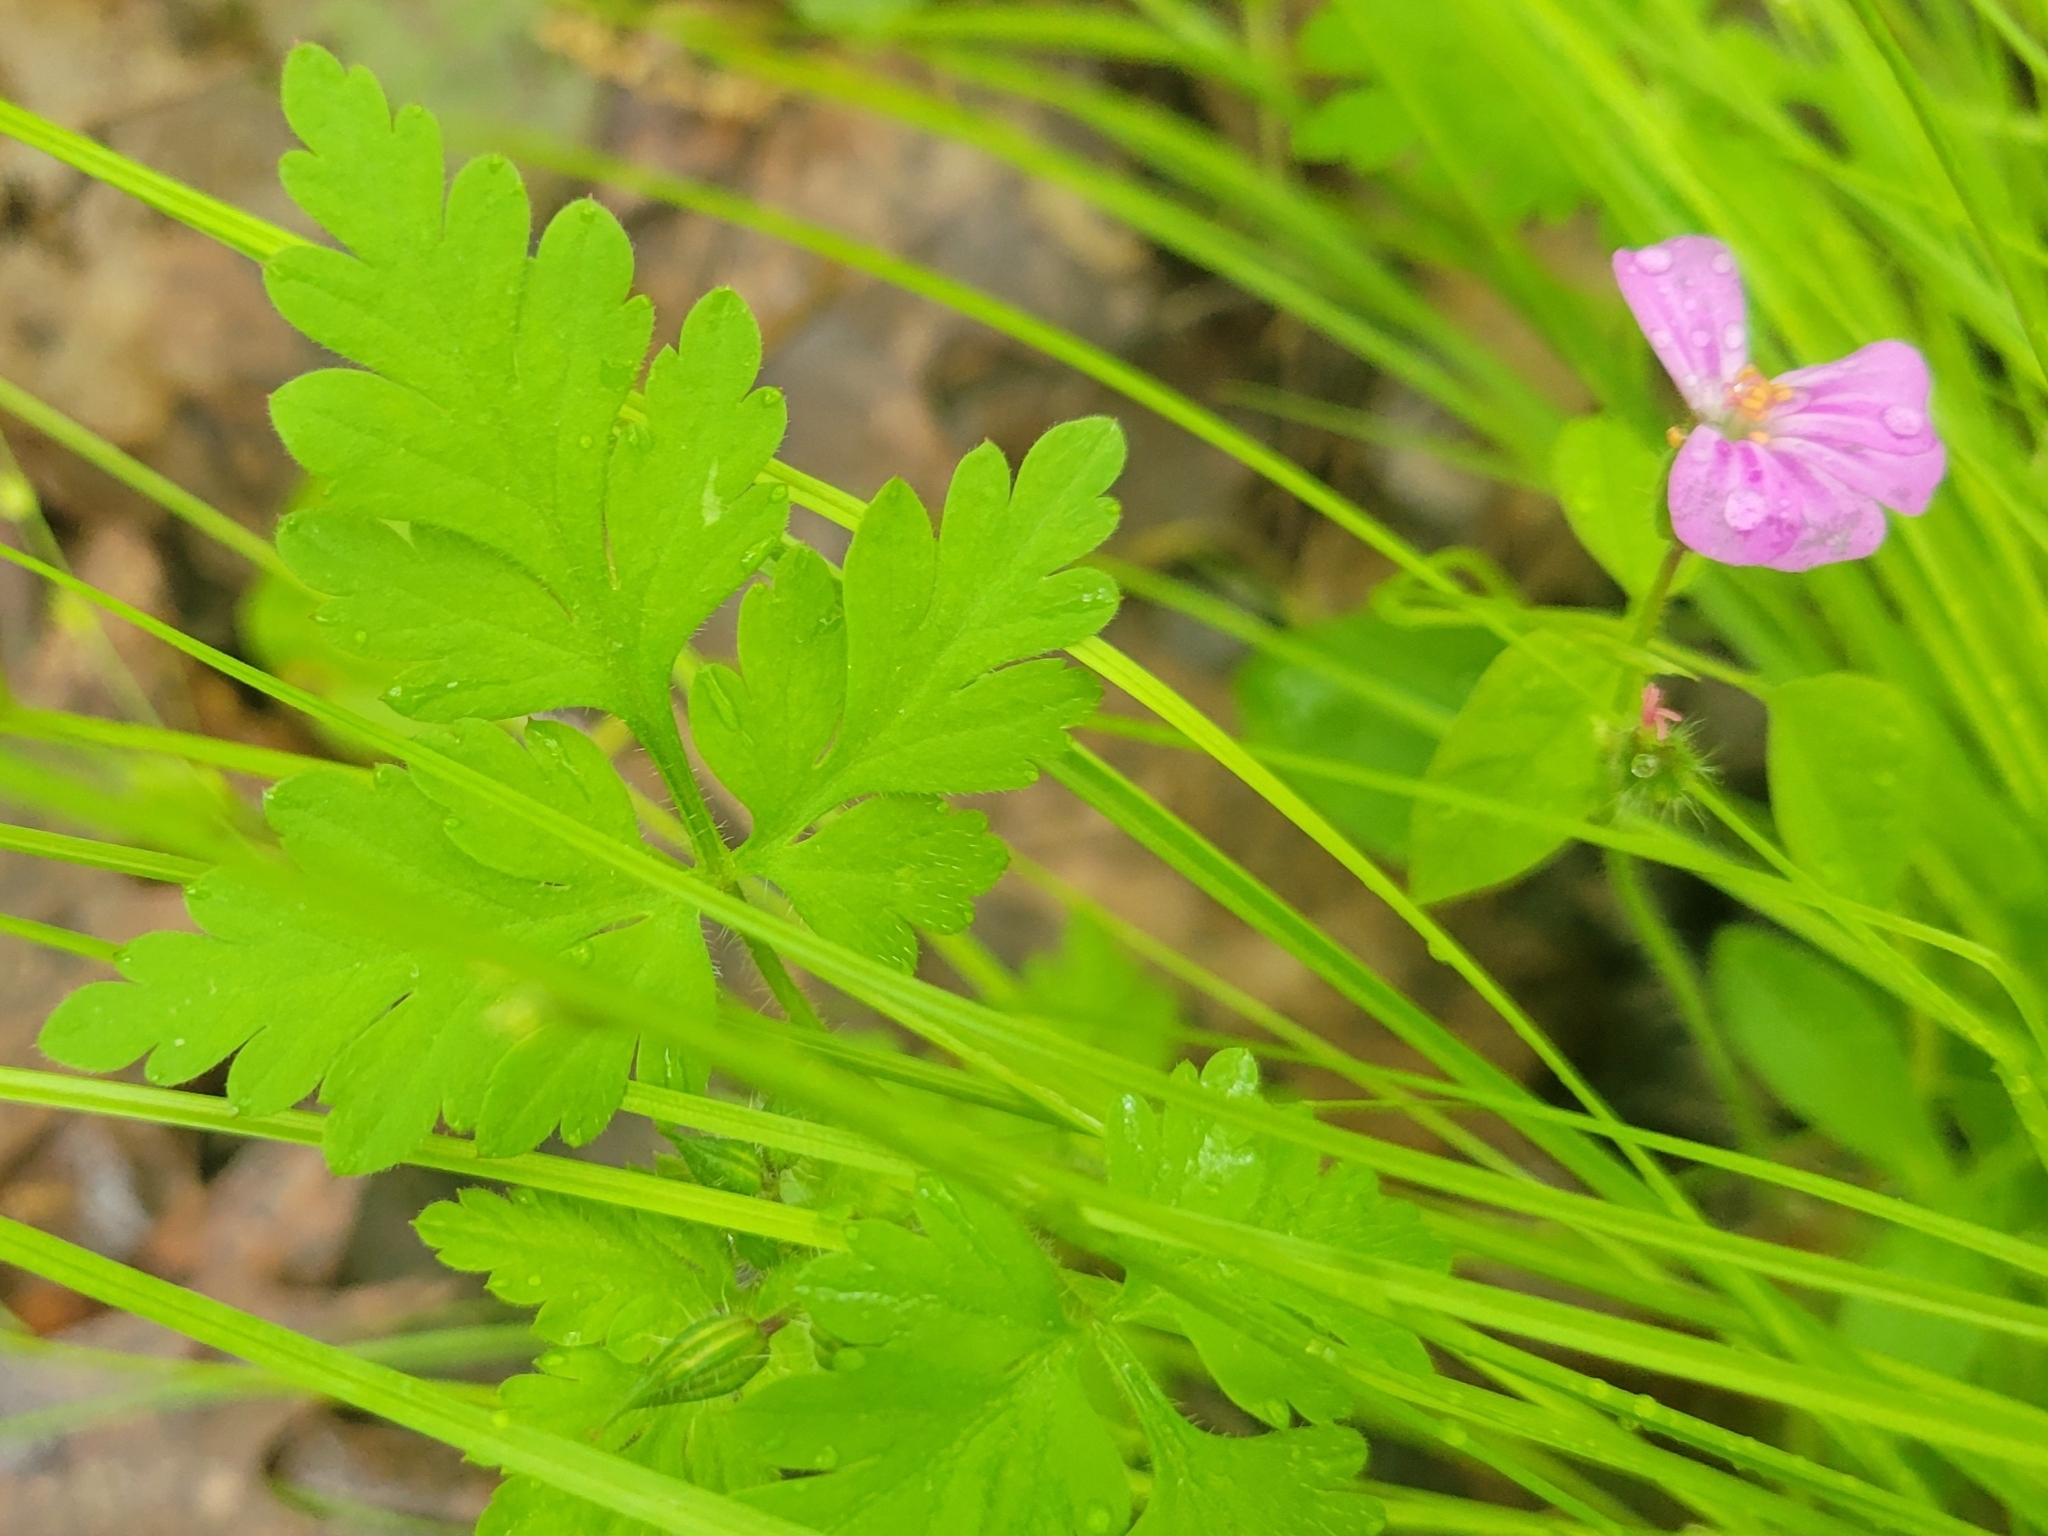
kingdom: Plantae
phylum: Tracheophyta
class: Magnoliopsida
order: Geraniales
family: Geraniaceae
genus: Geranium
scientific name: Geranium robertianum
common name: Herb-robert
